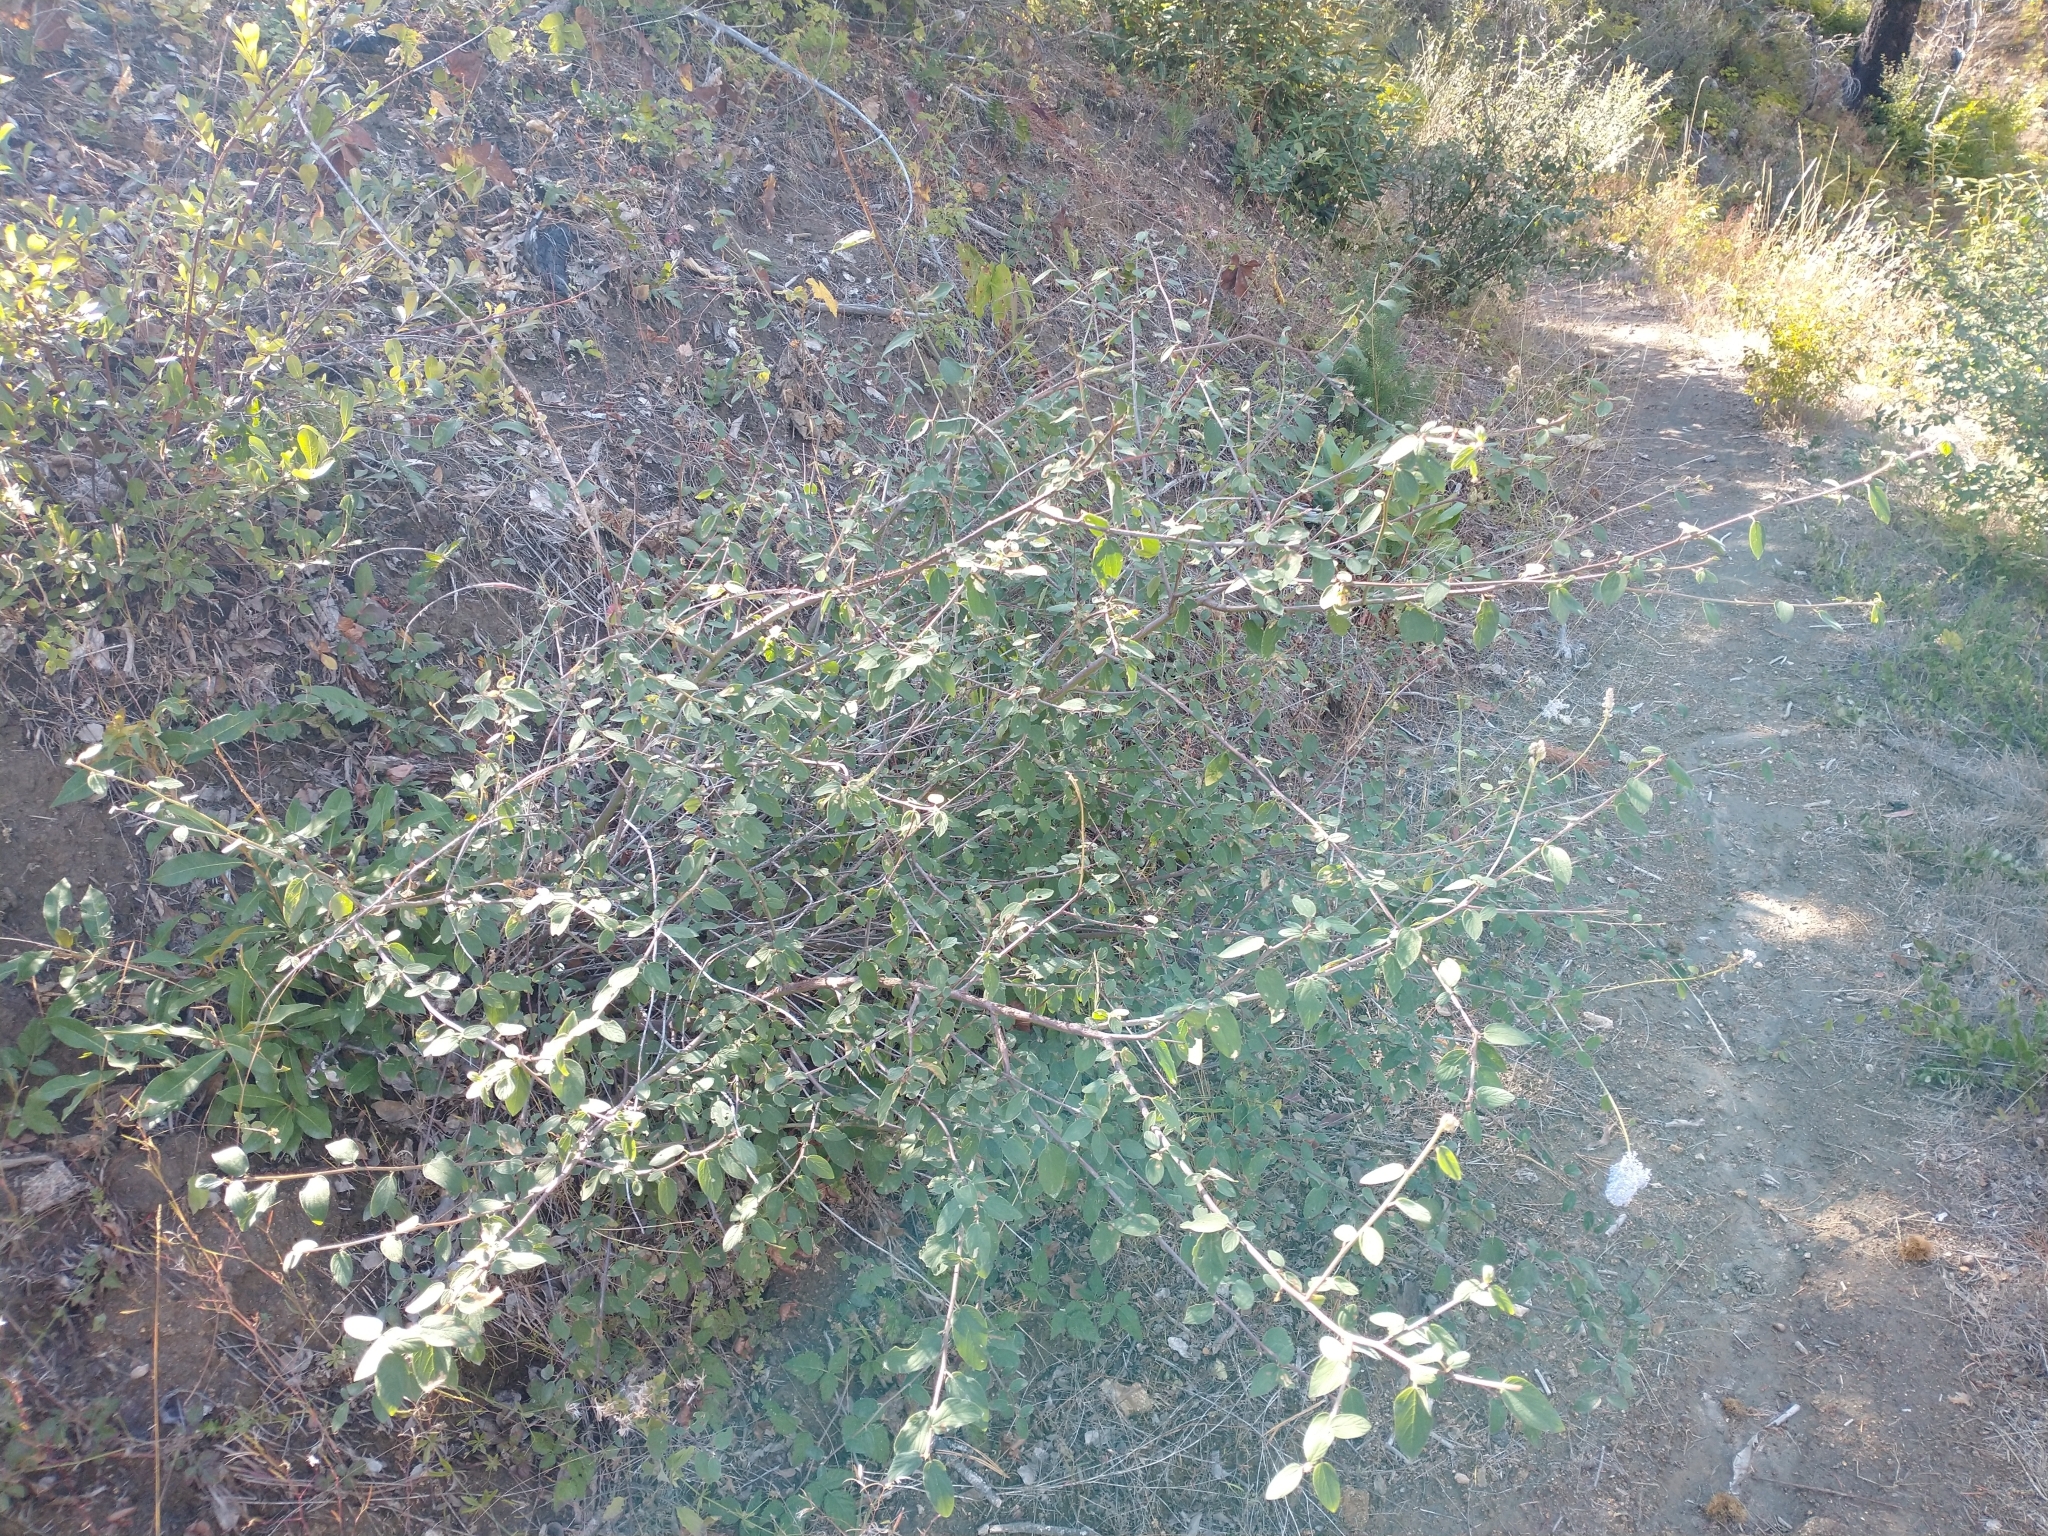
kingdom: Plantae
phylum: Tracheophyta
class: Magnoliopsida
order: Rosales
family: Rhamnaceae
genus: Ceanothus
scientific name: Ceanothus integerrimus
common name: Deerbrush ceanothus
